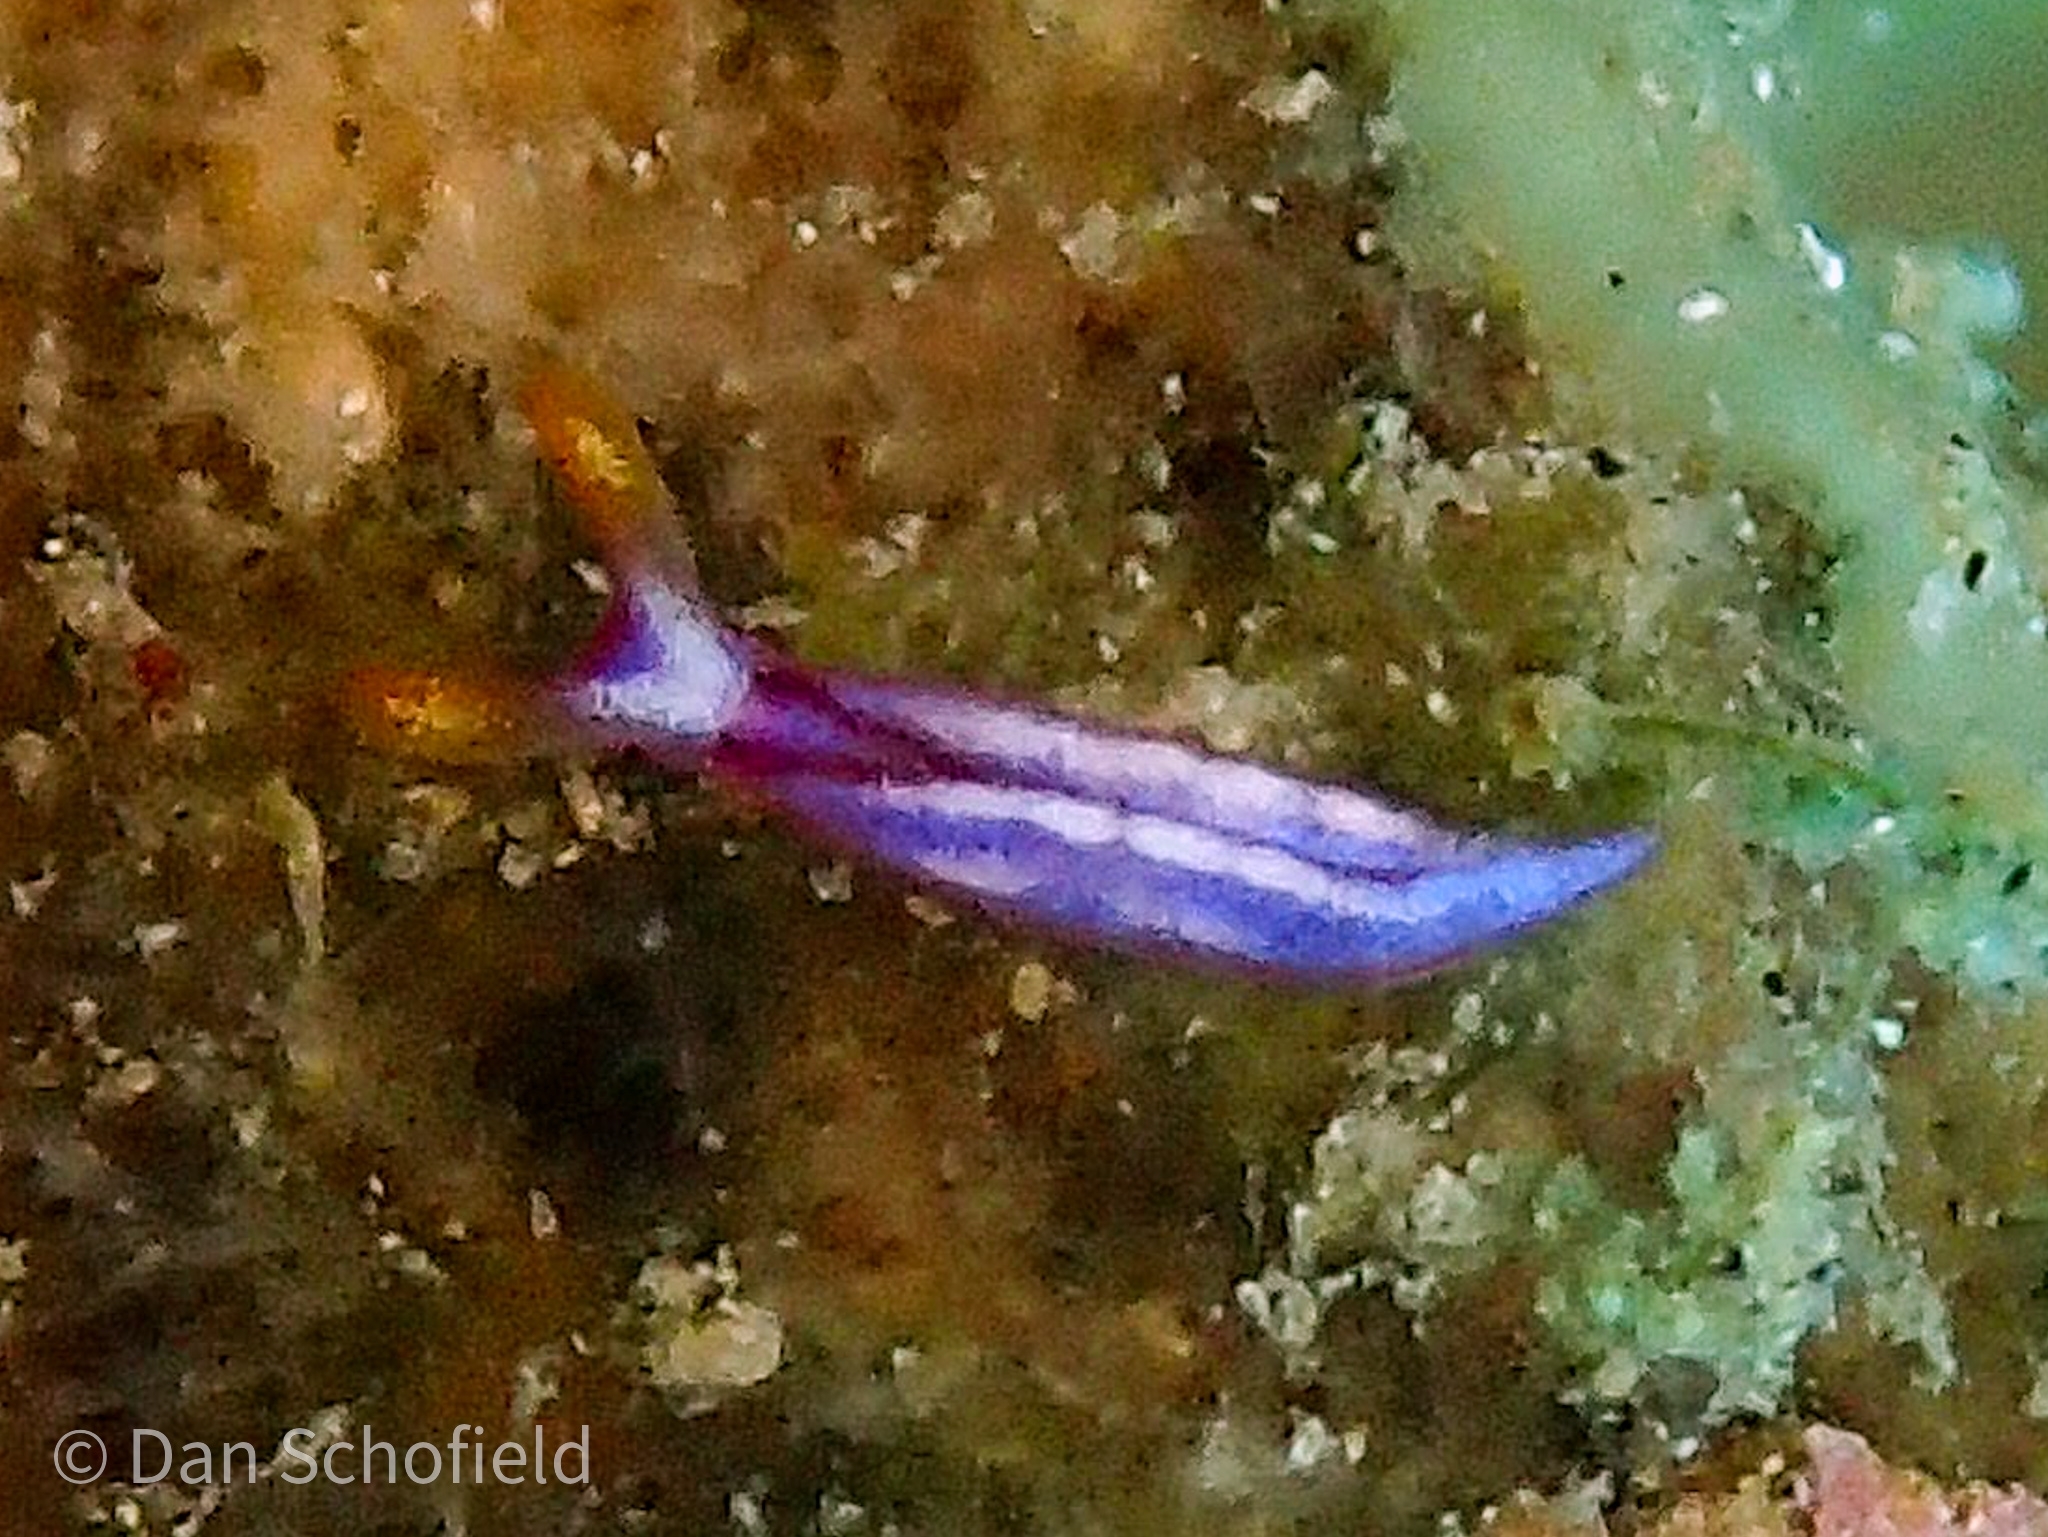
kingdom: Animalia
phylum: Mollusca
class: Gastropoda
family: Plakobranchidae
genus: Thuridilla
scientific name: Thuridilla albopustulosa
